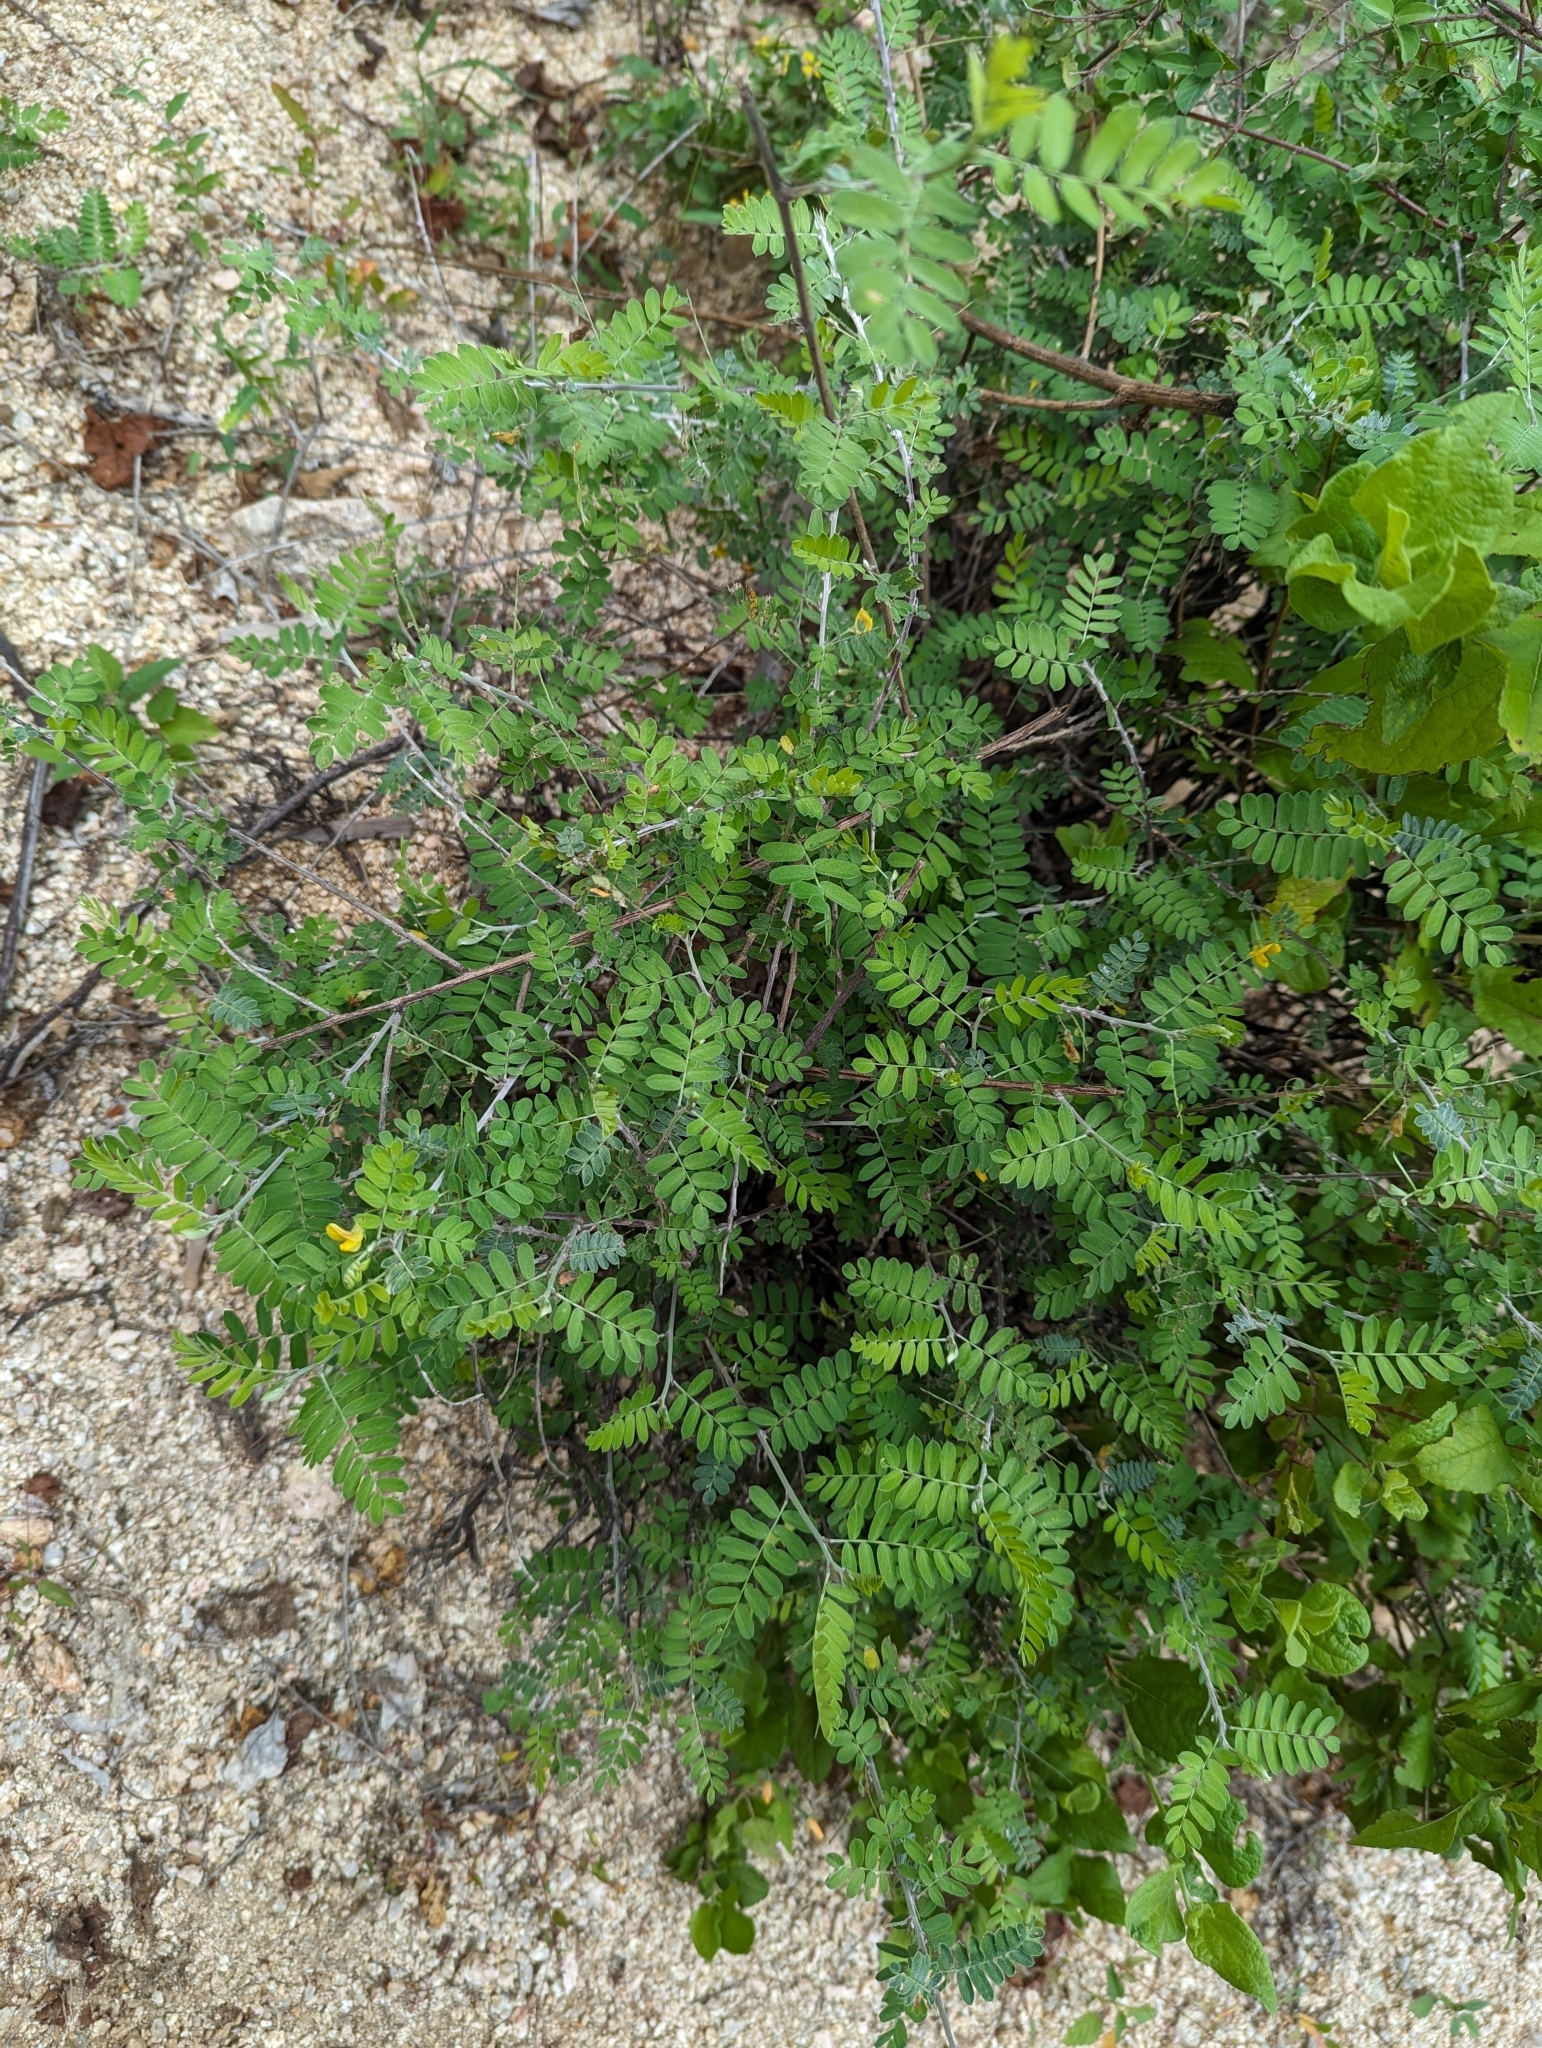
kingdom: Plantae
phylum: Tracheophyta
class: Magnoliopsida
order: Fabales
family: Fabaceae
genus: Ctenodon
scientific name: Ctenodon vigil
